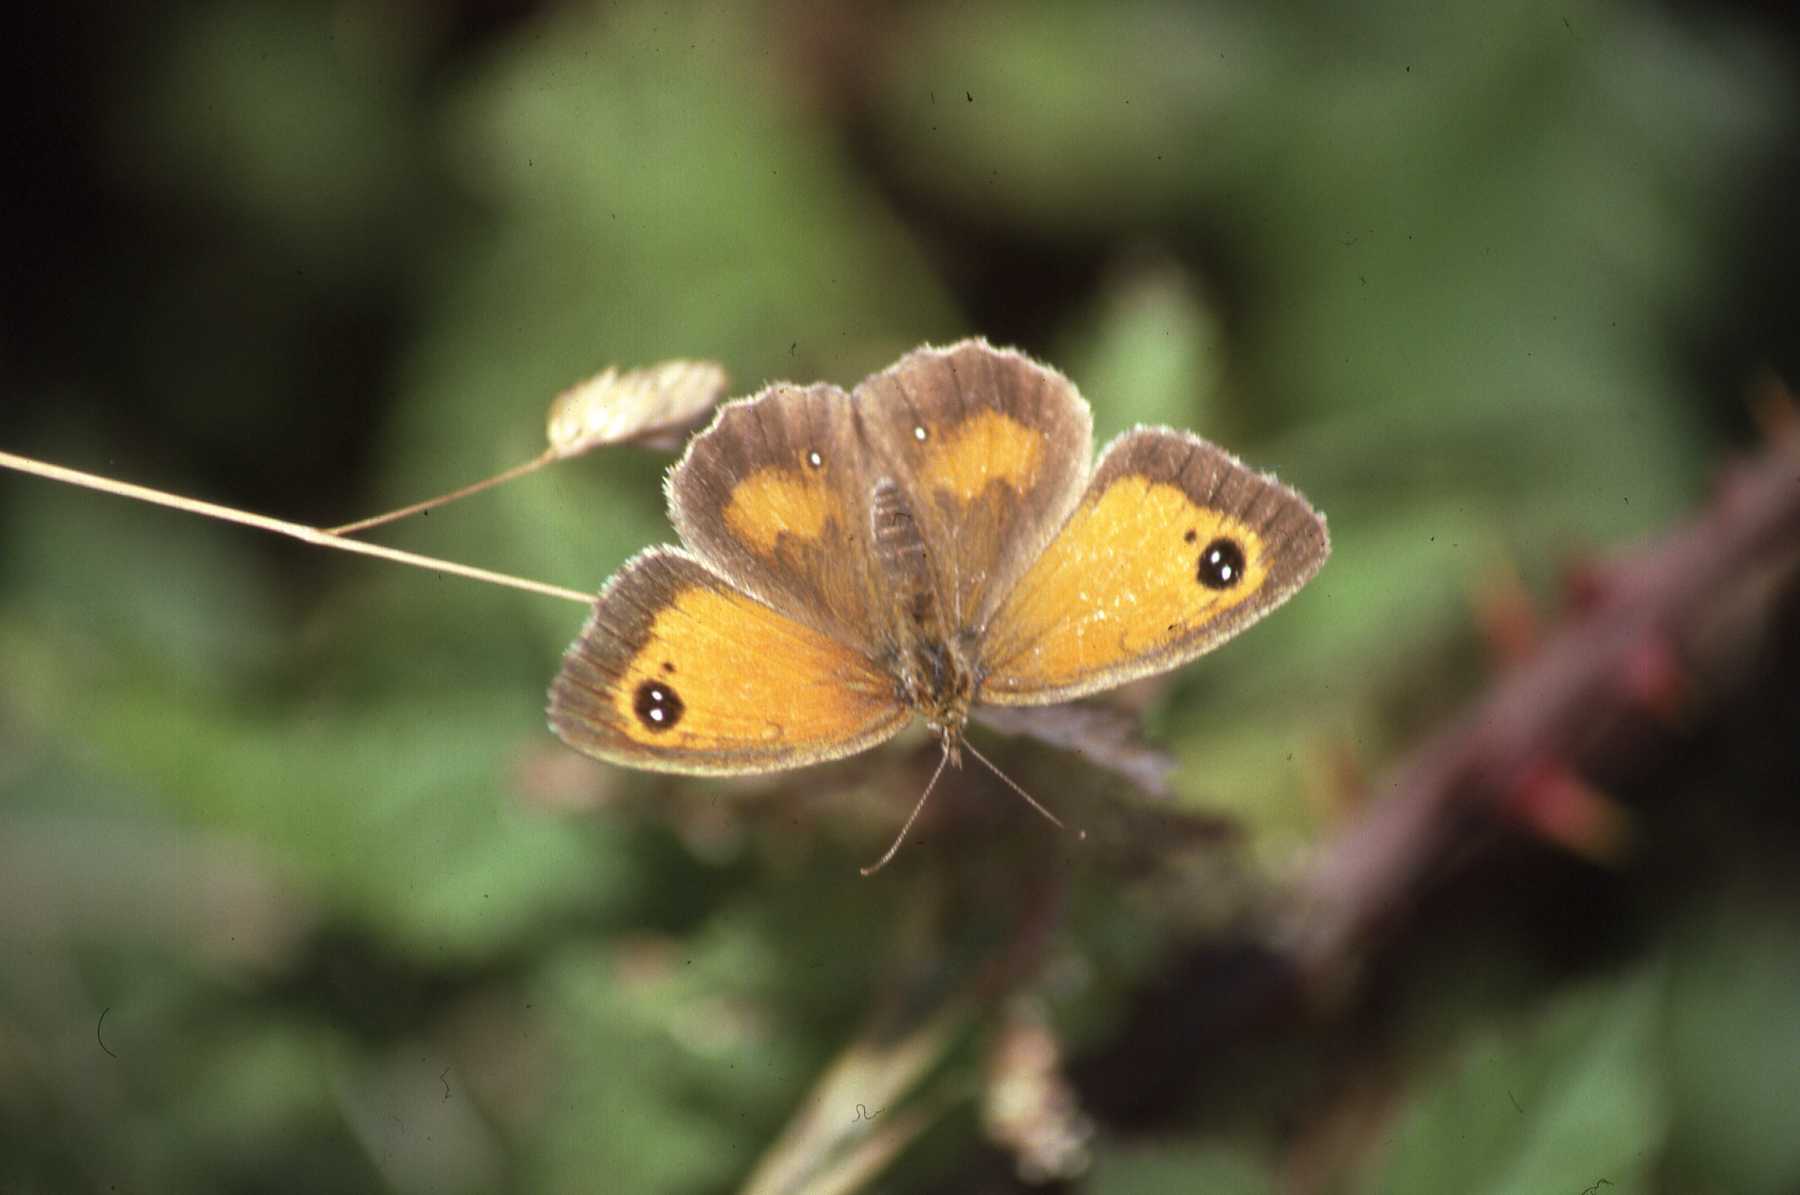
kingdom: Animalia
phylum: Arthropoda
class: Insecta
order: Lepidoptera
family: Nymphalidae
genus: Pyronia
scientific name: Pyronia tithonus
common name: Gatekeeper
